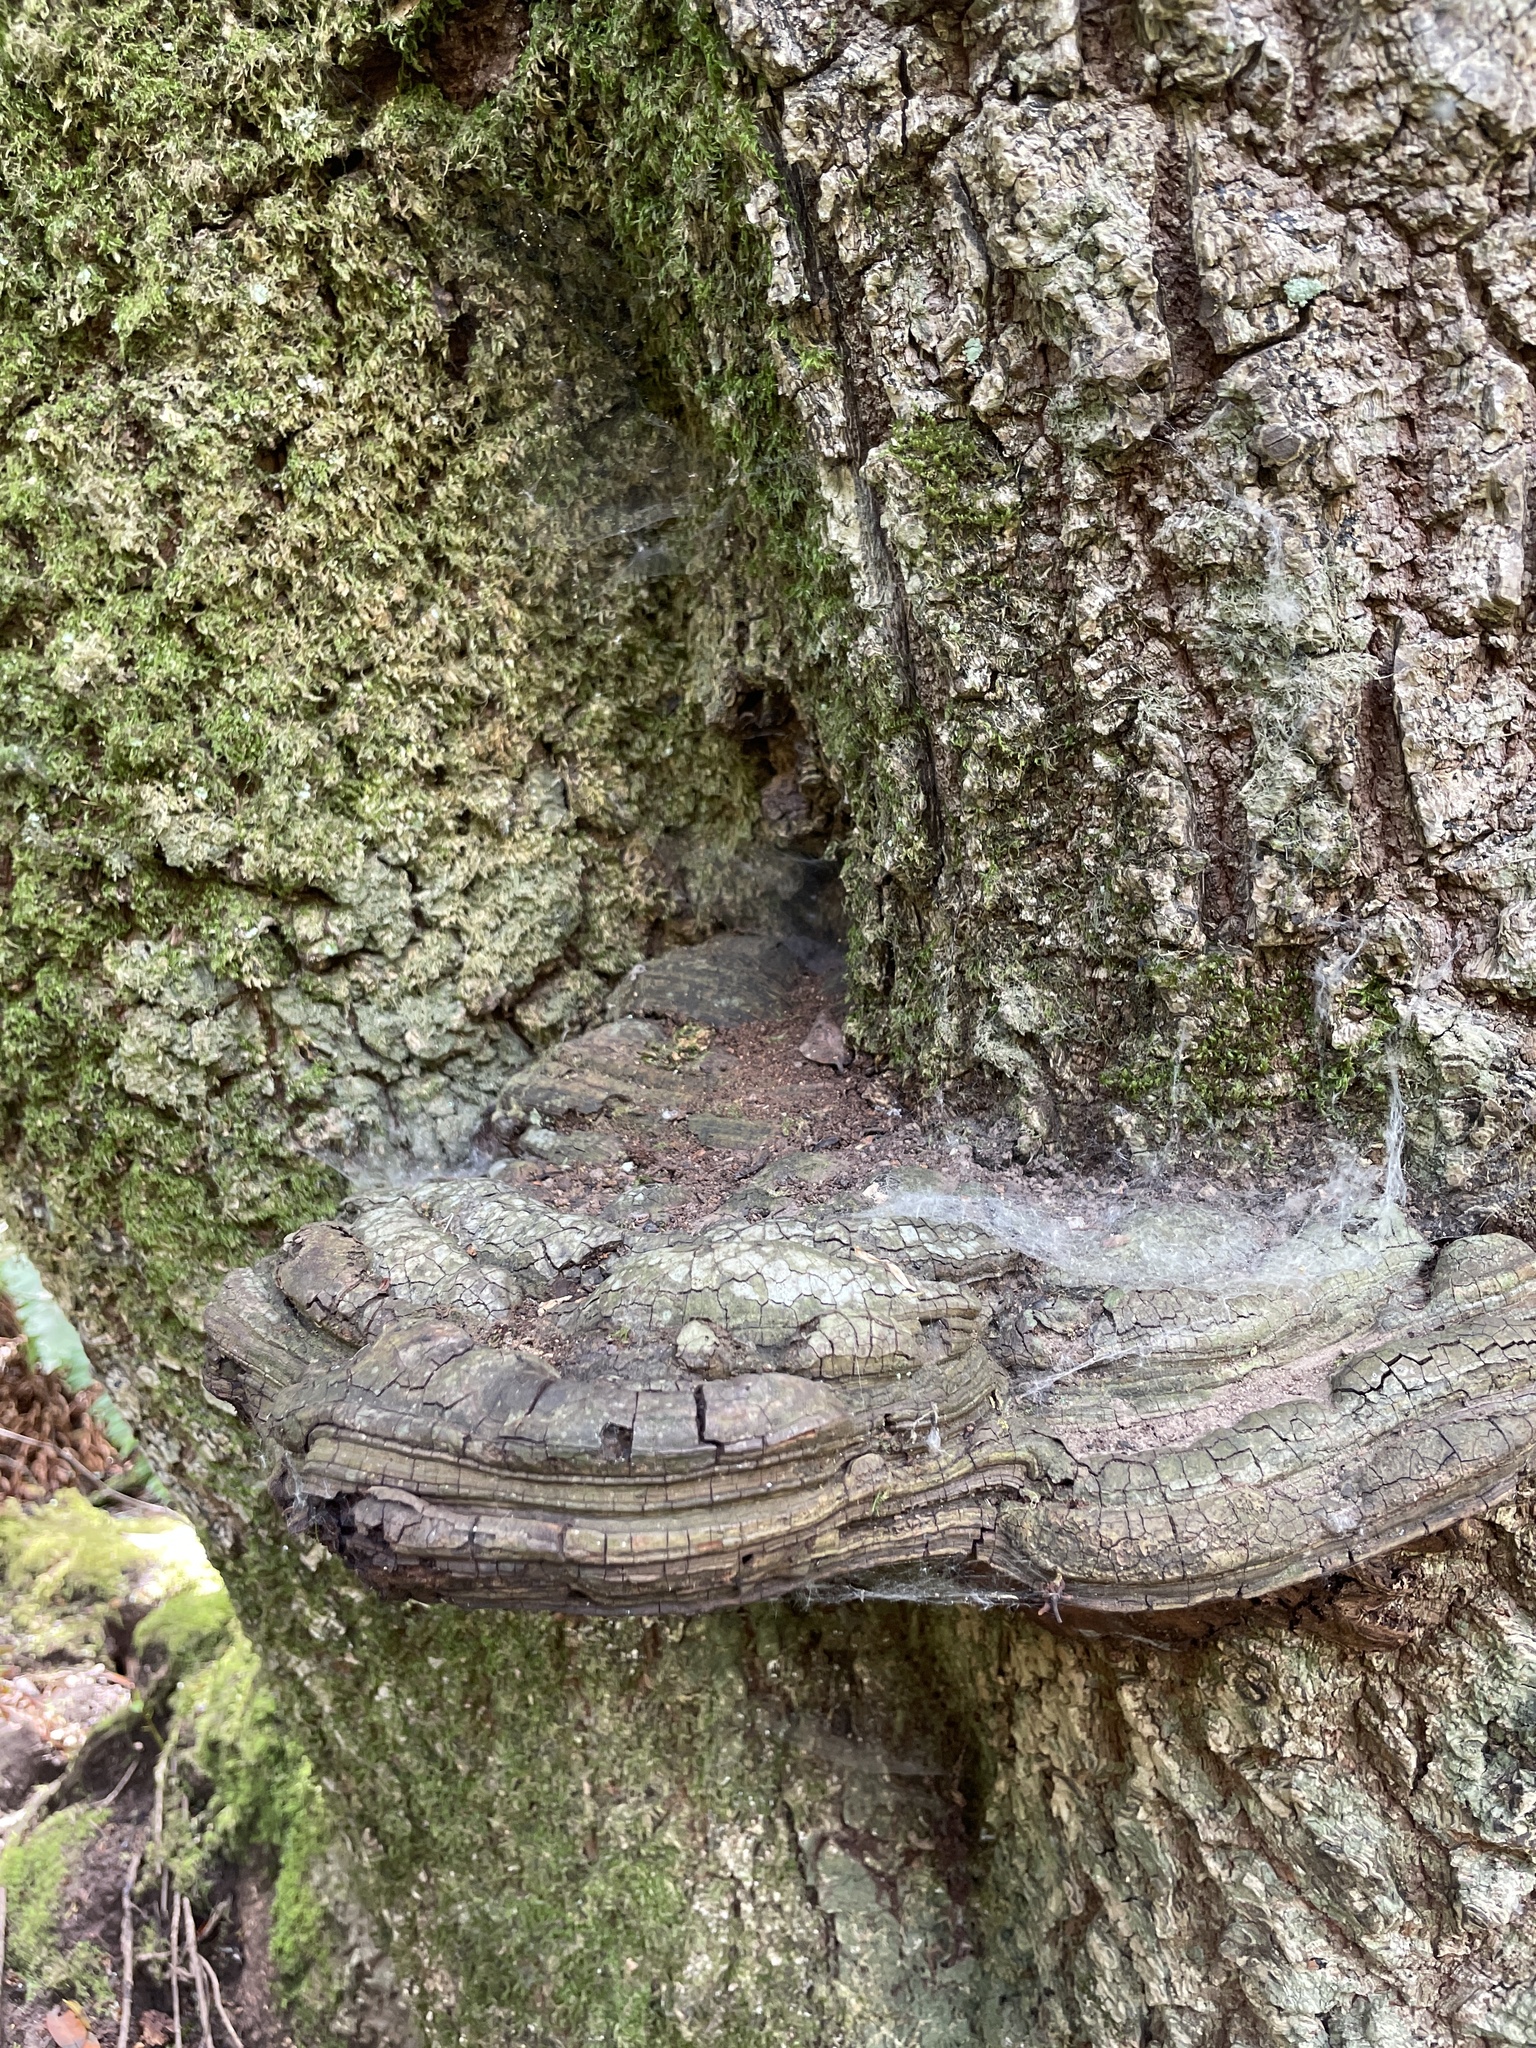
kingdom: Fungi
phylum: Basidiomycota
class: Agaricomycetes
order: Polyporales
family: Polyporaceae
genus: Ganoderma
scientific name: Ganoderma brownii
